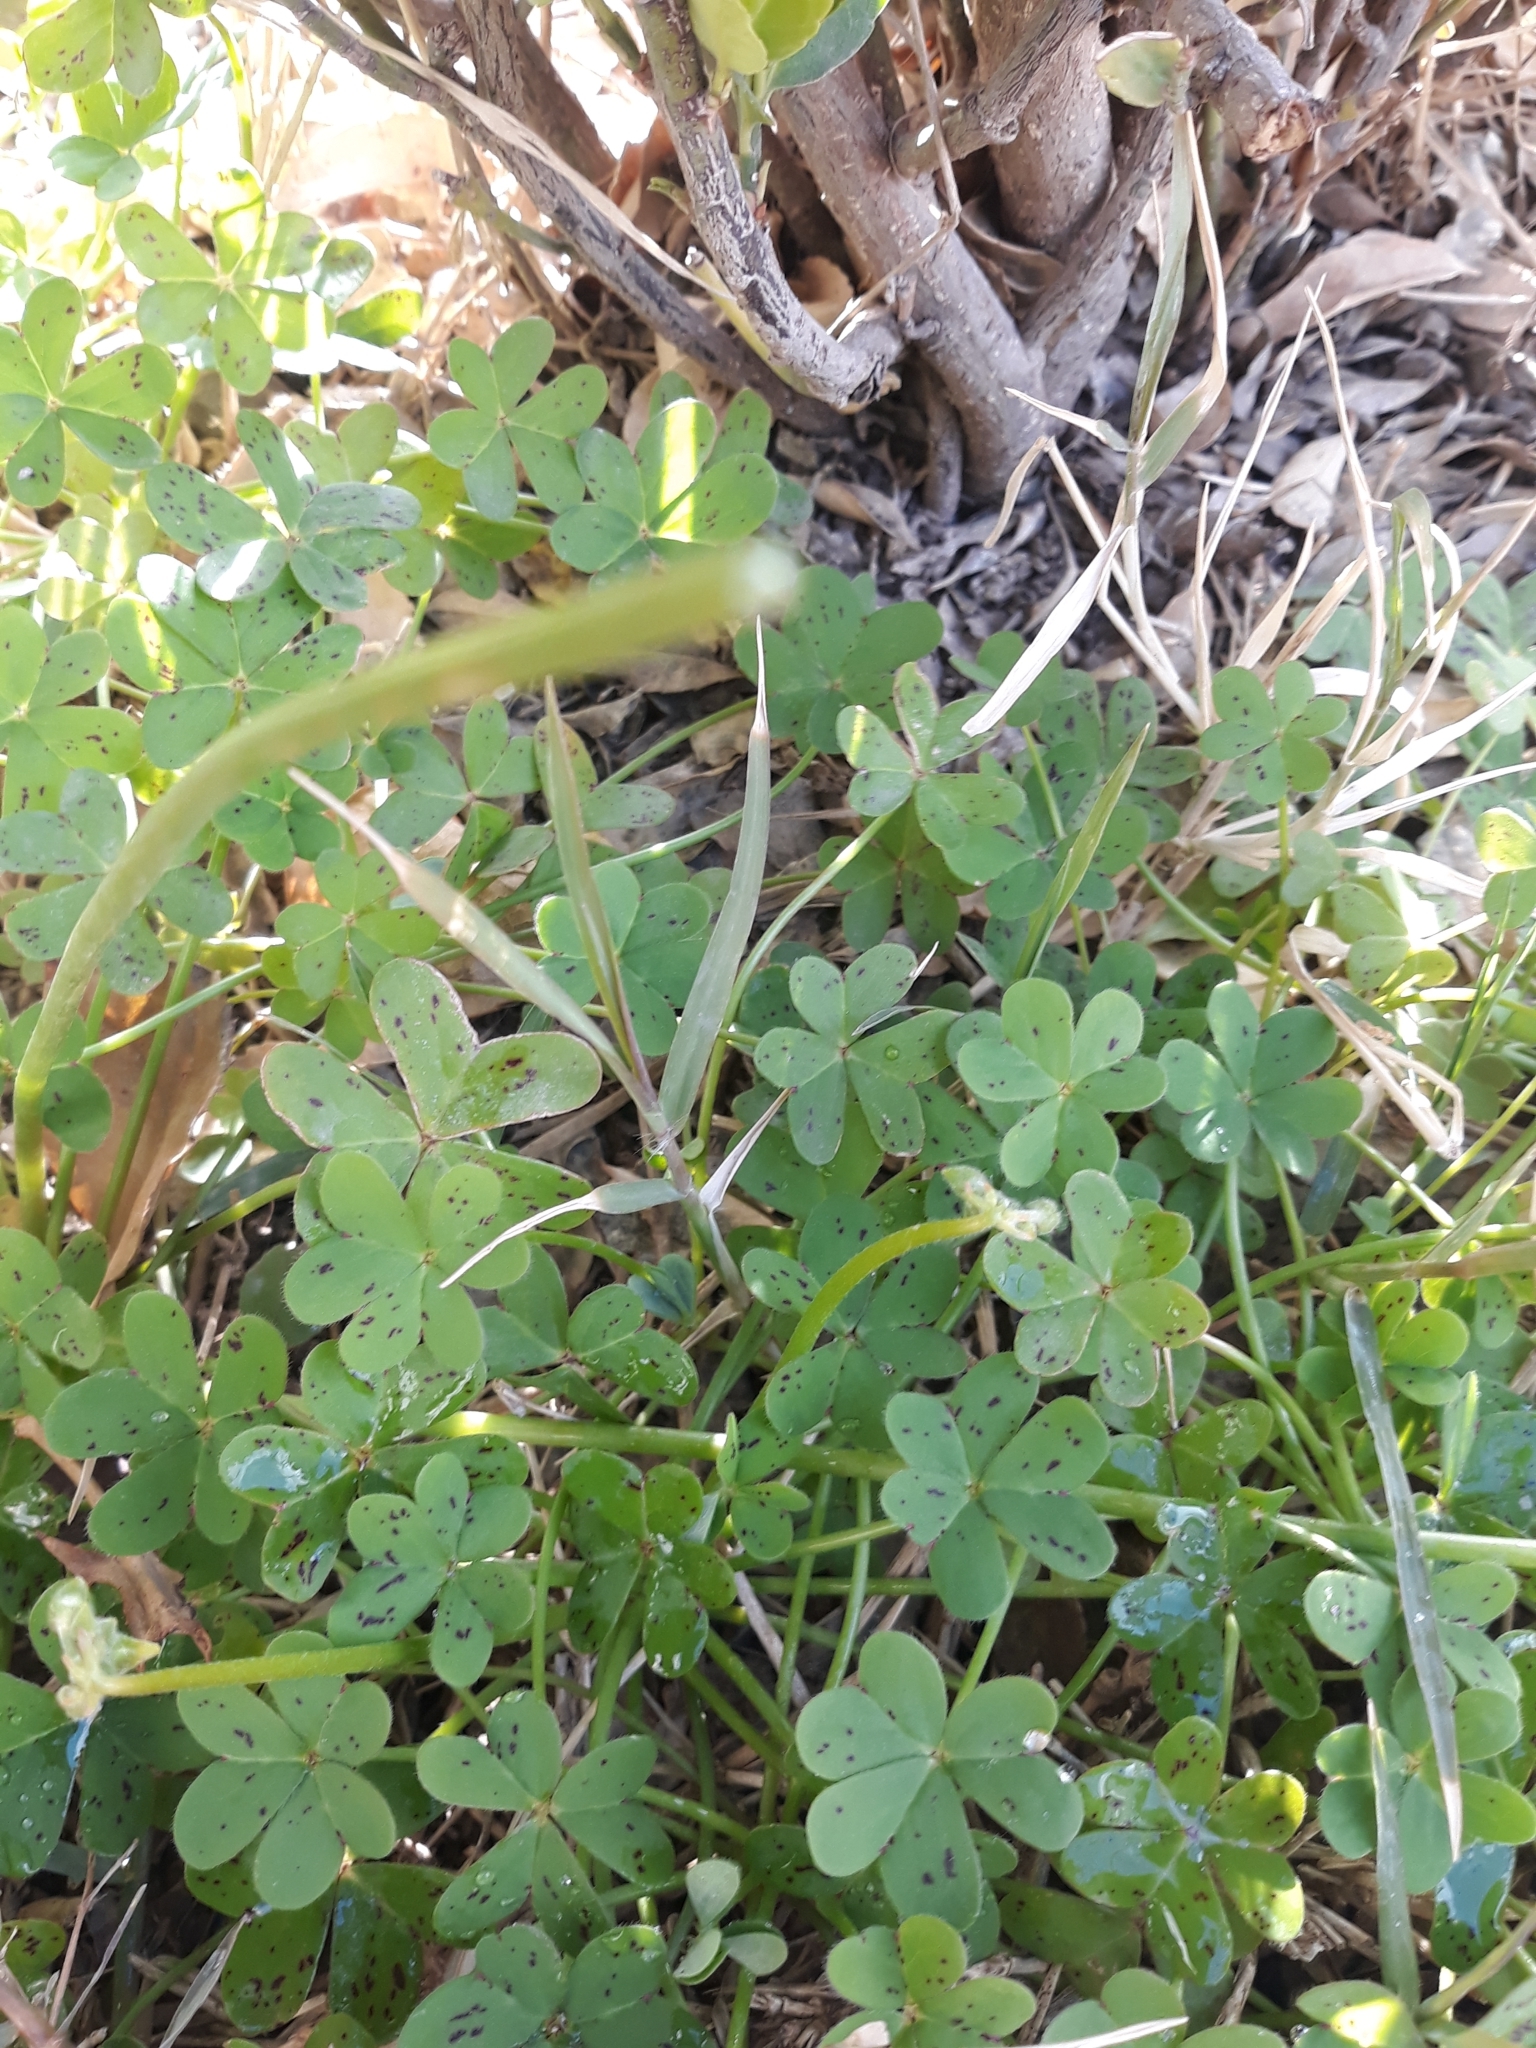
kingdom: Plantae
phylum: Tracheophyta
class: Magnoliopsida
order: Oxalidales
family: Oxalidaceae
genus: Oxalis
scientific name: Oxalis pes-caprae
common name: Bermuda-buttercup
